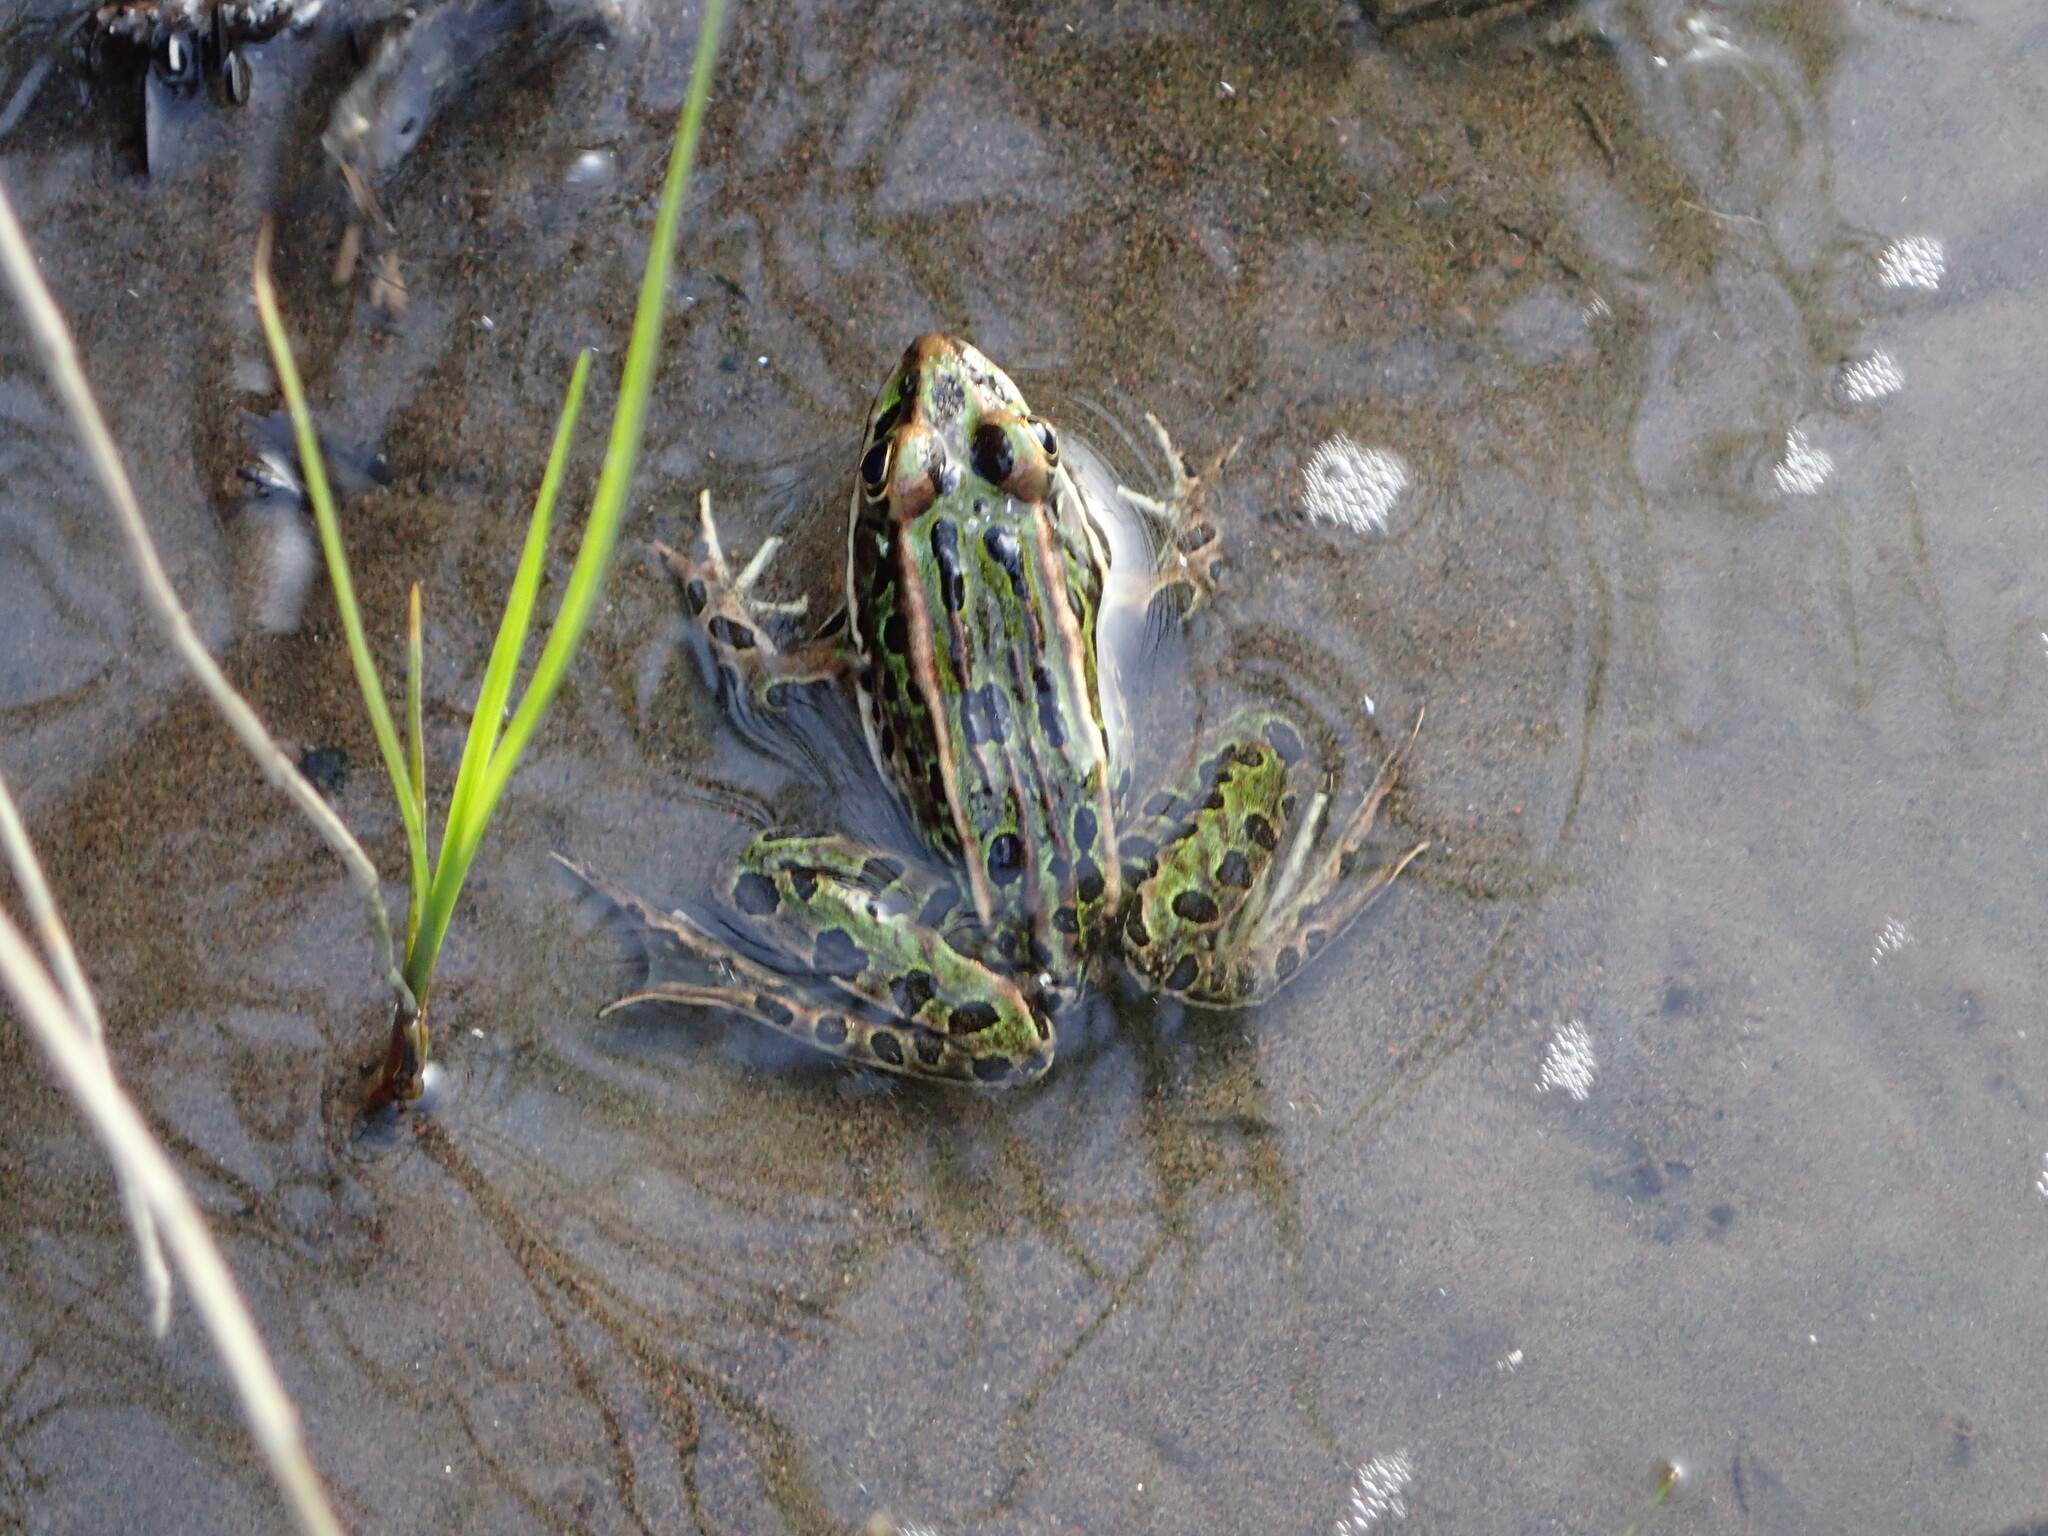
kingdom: Animalia
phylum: Chordata
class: Amphibia
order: Anura
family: Ranidae
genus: Lithobates
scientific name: Lithobates pipiens
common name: Northern leopard frog
